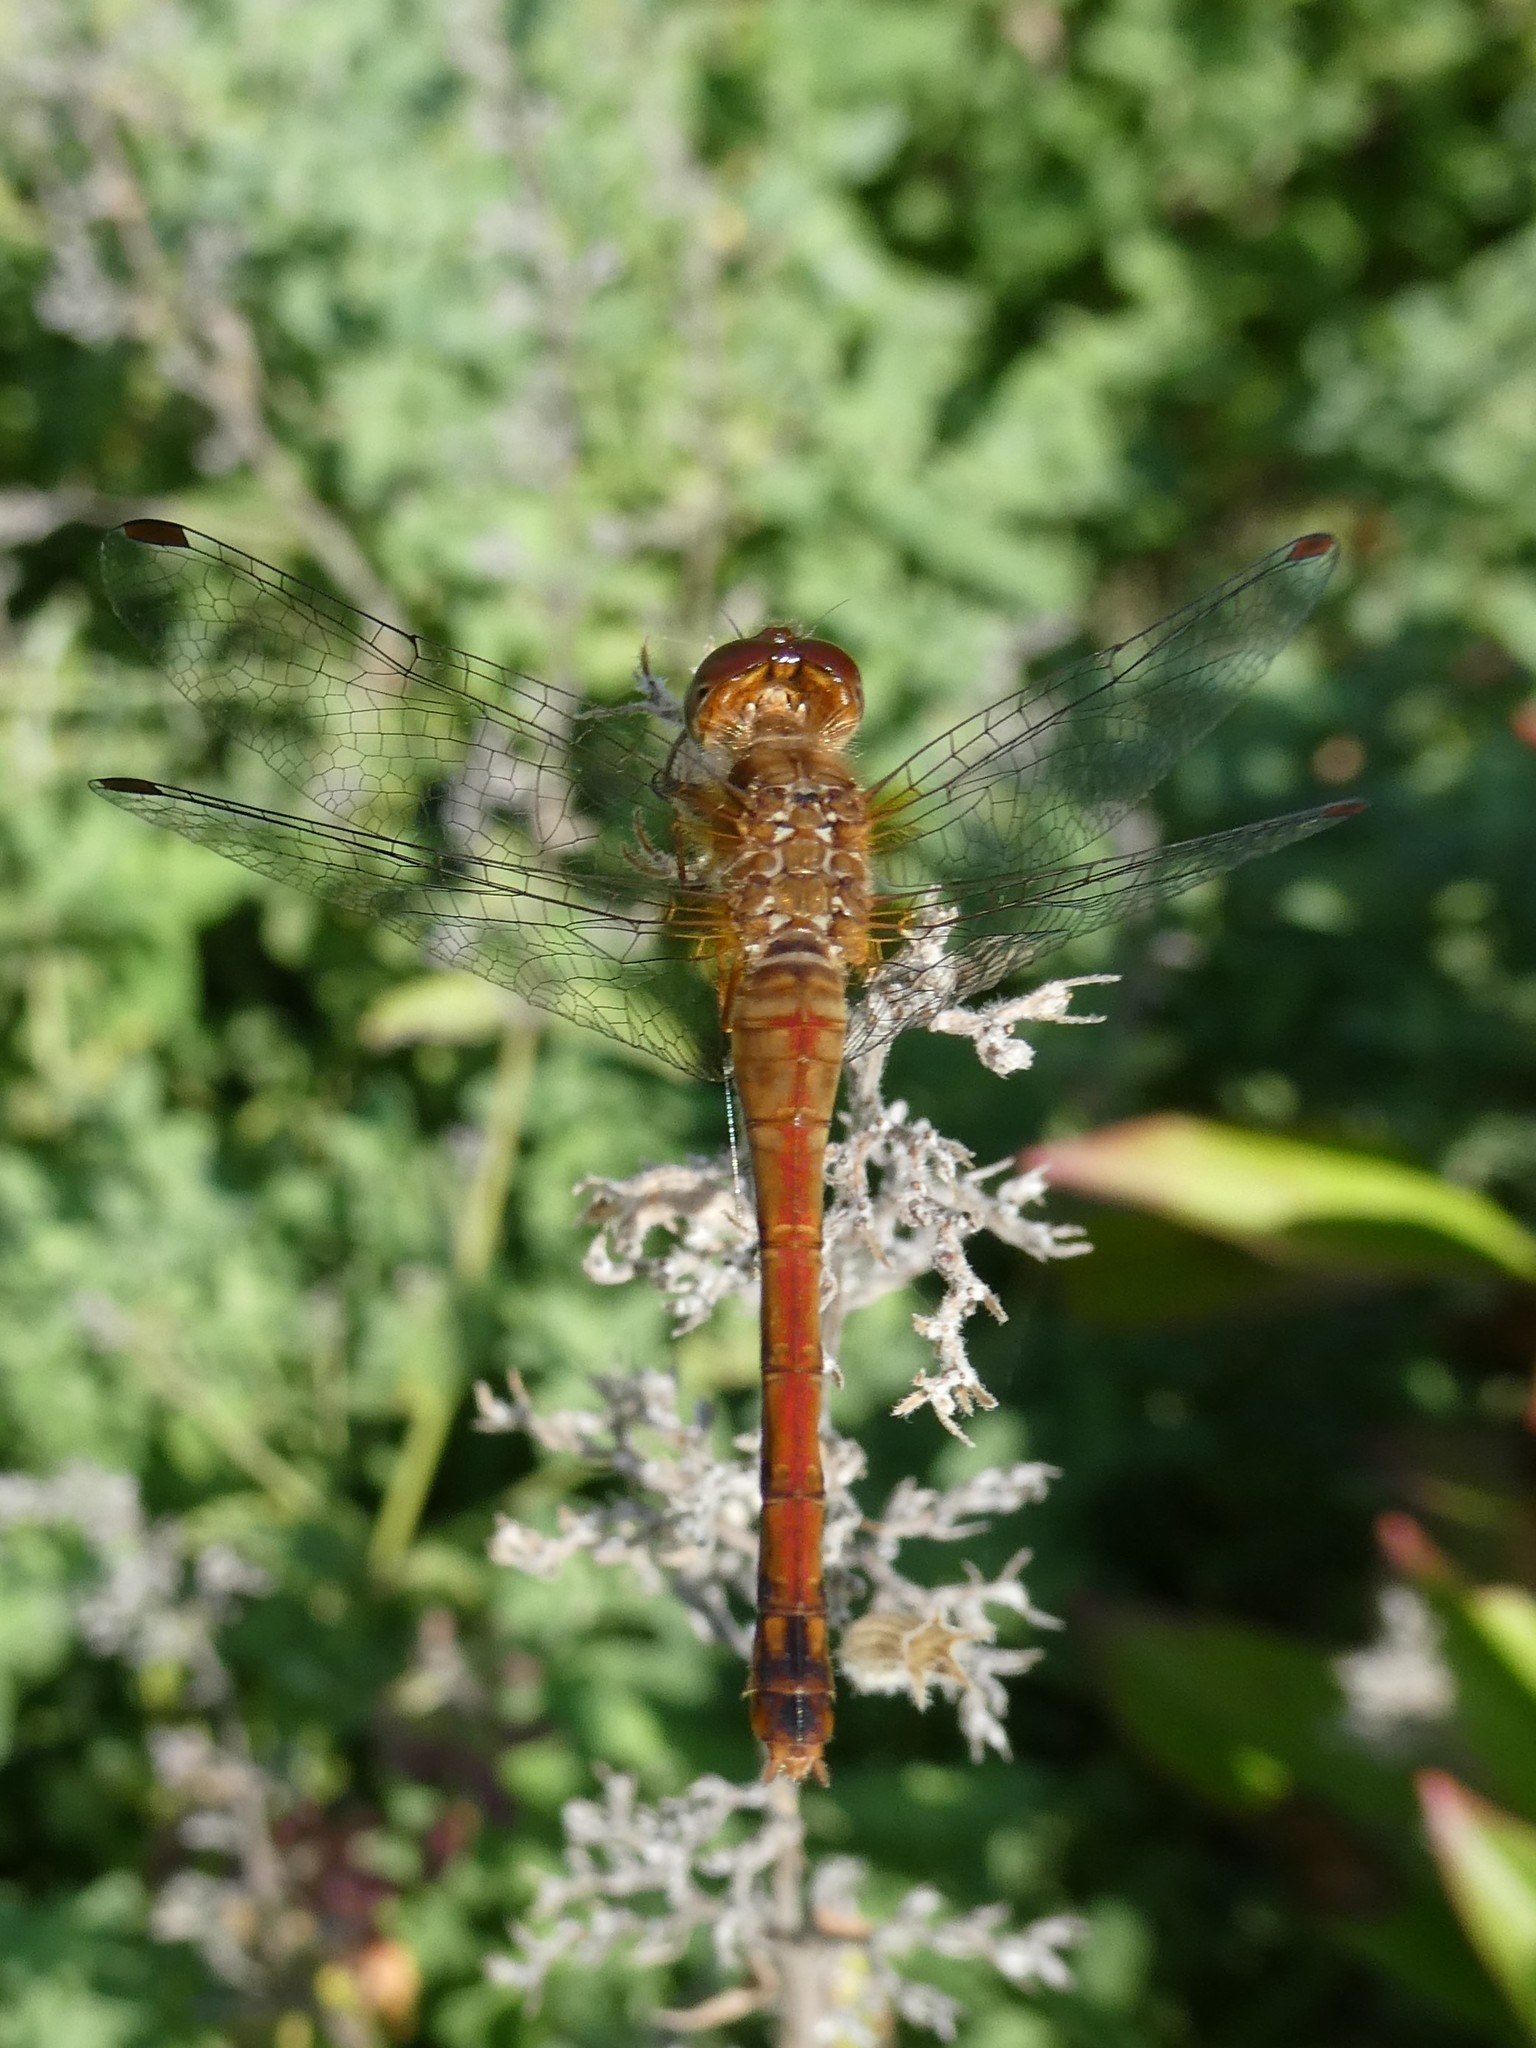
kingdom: Animalia
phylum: Arthropoda
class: Insecta
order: Odonata
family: Libellulidae
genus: Sympetrum
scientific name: Sympetrum vicinum
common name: Autumn meadowhawk
